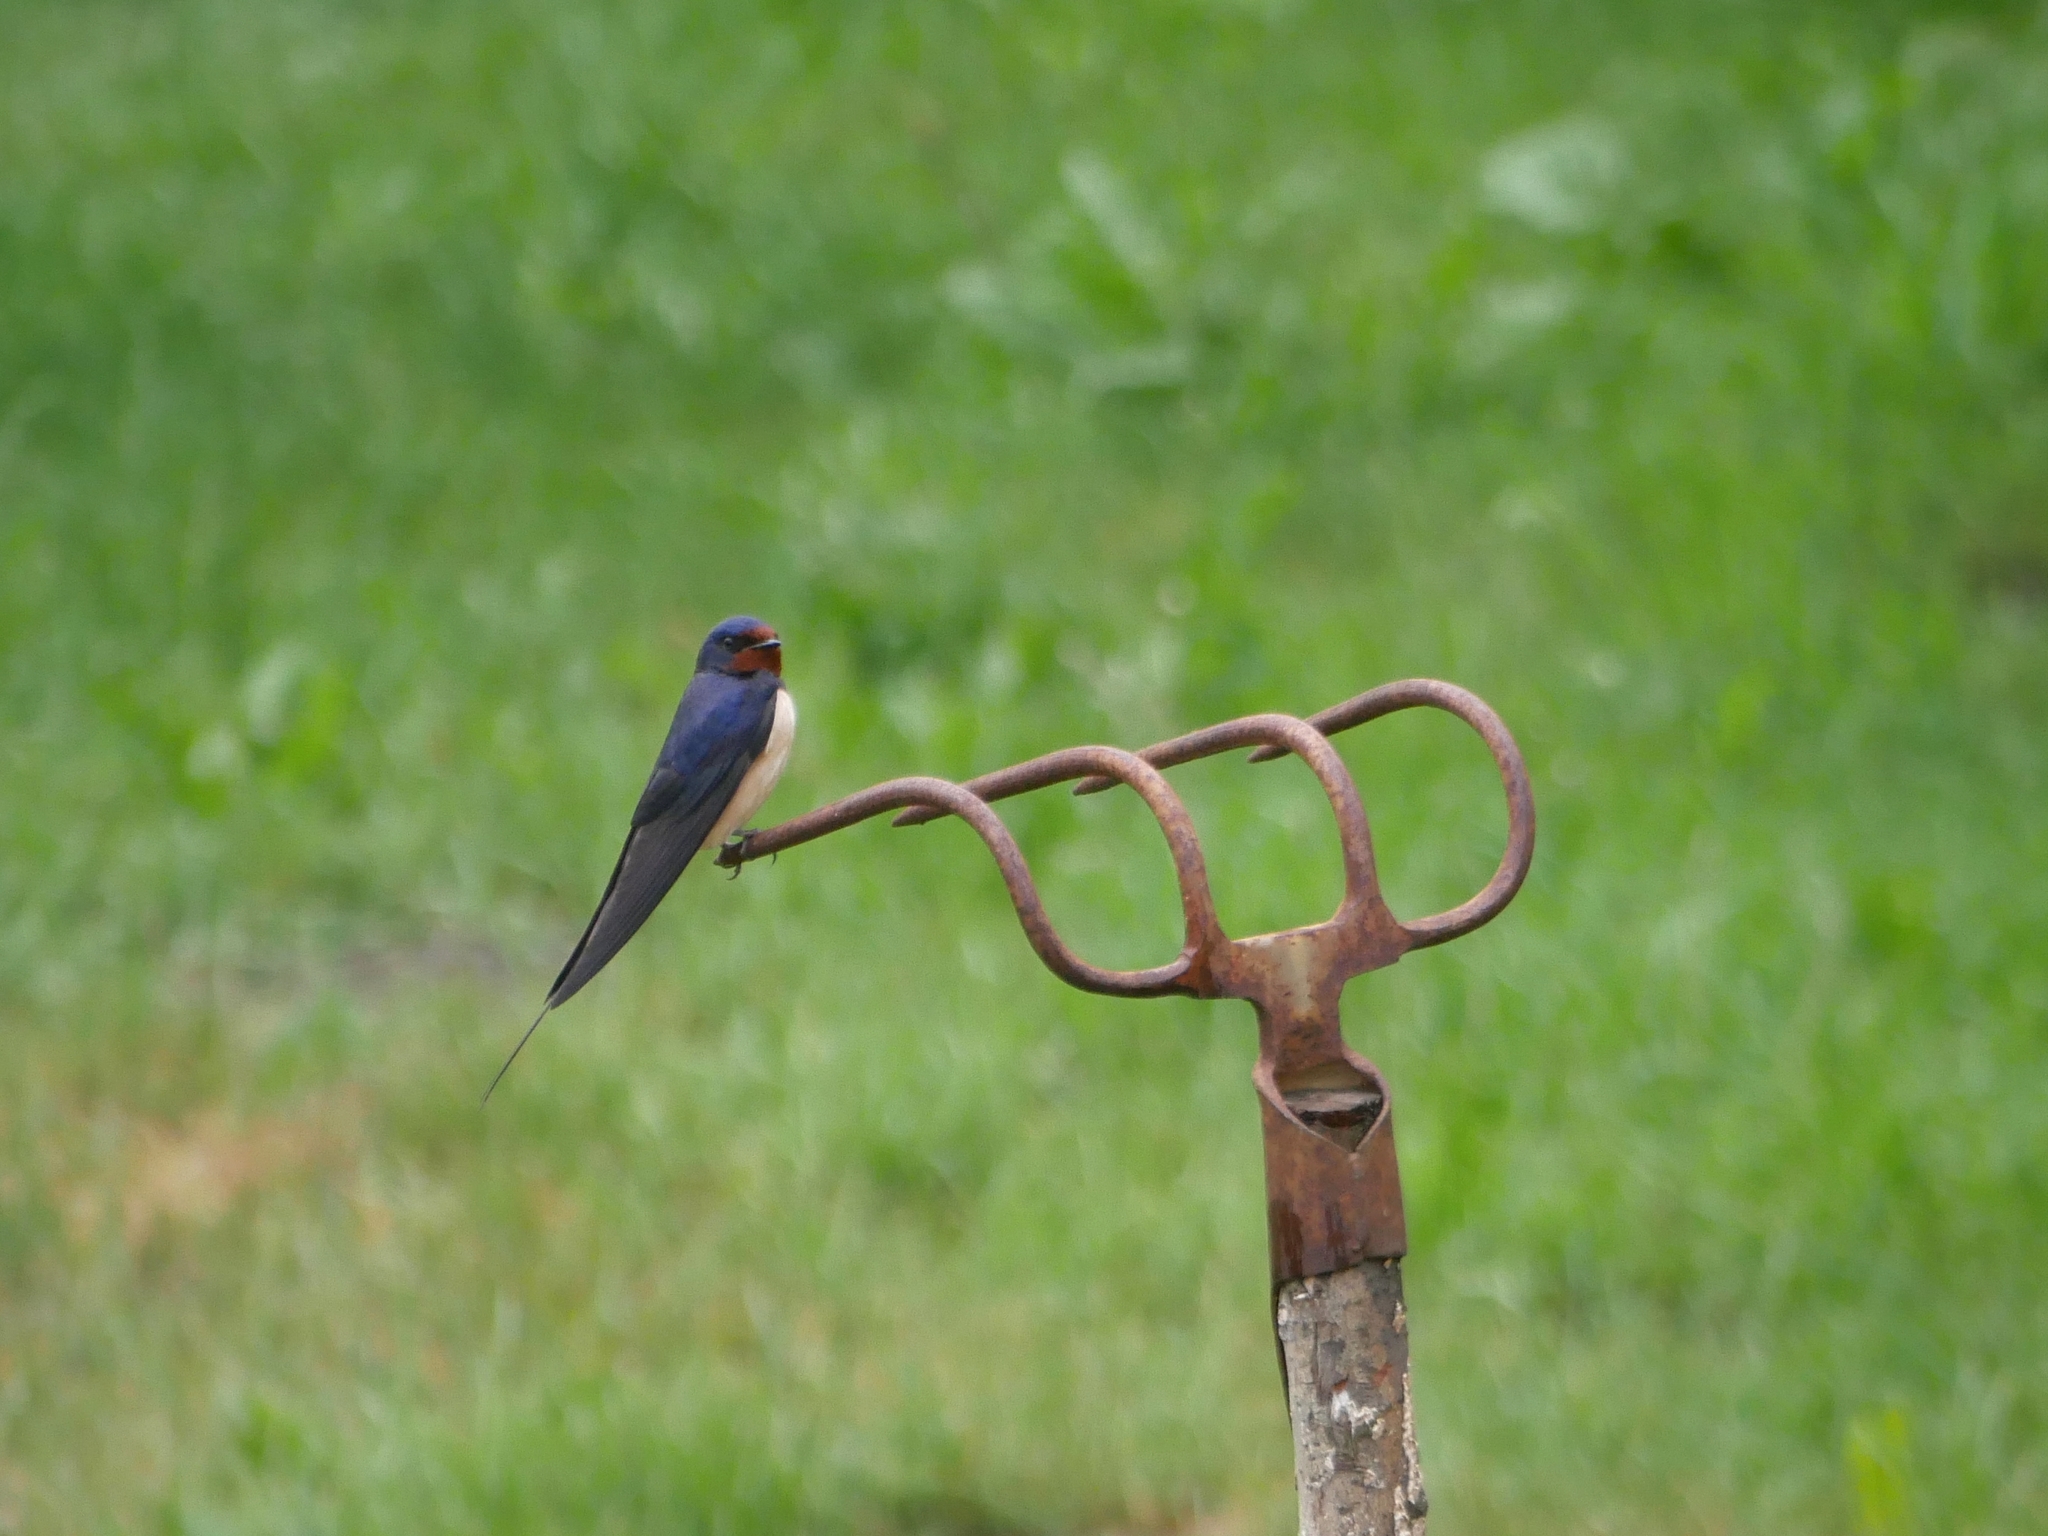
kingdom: Animalia
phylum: Chordata
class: Aves
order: Passeriformes
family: Hirundinidae
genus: Hirundo
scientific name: Hirundo rustica
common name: Barn swallow
